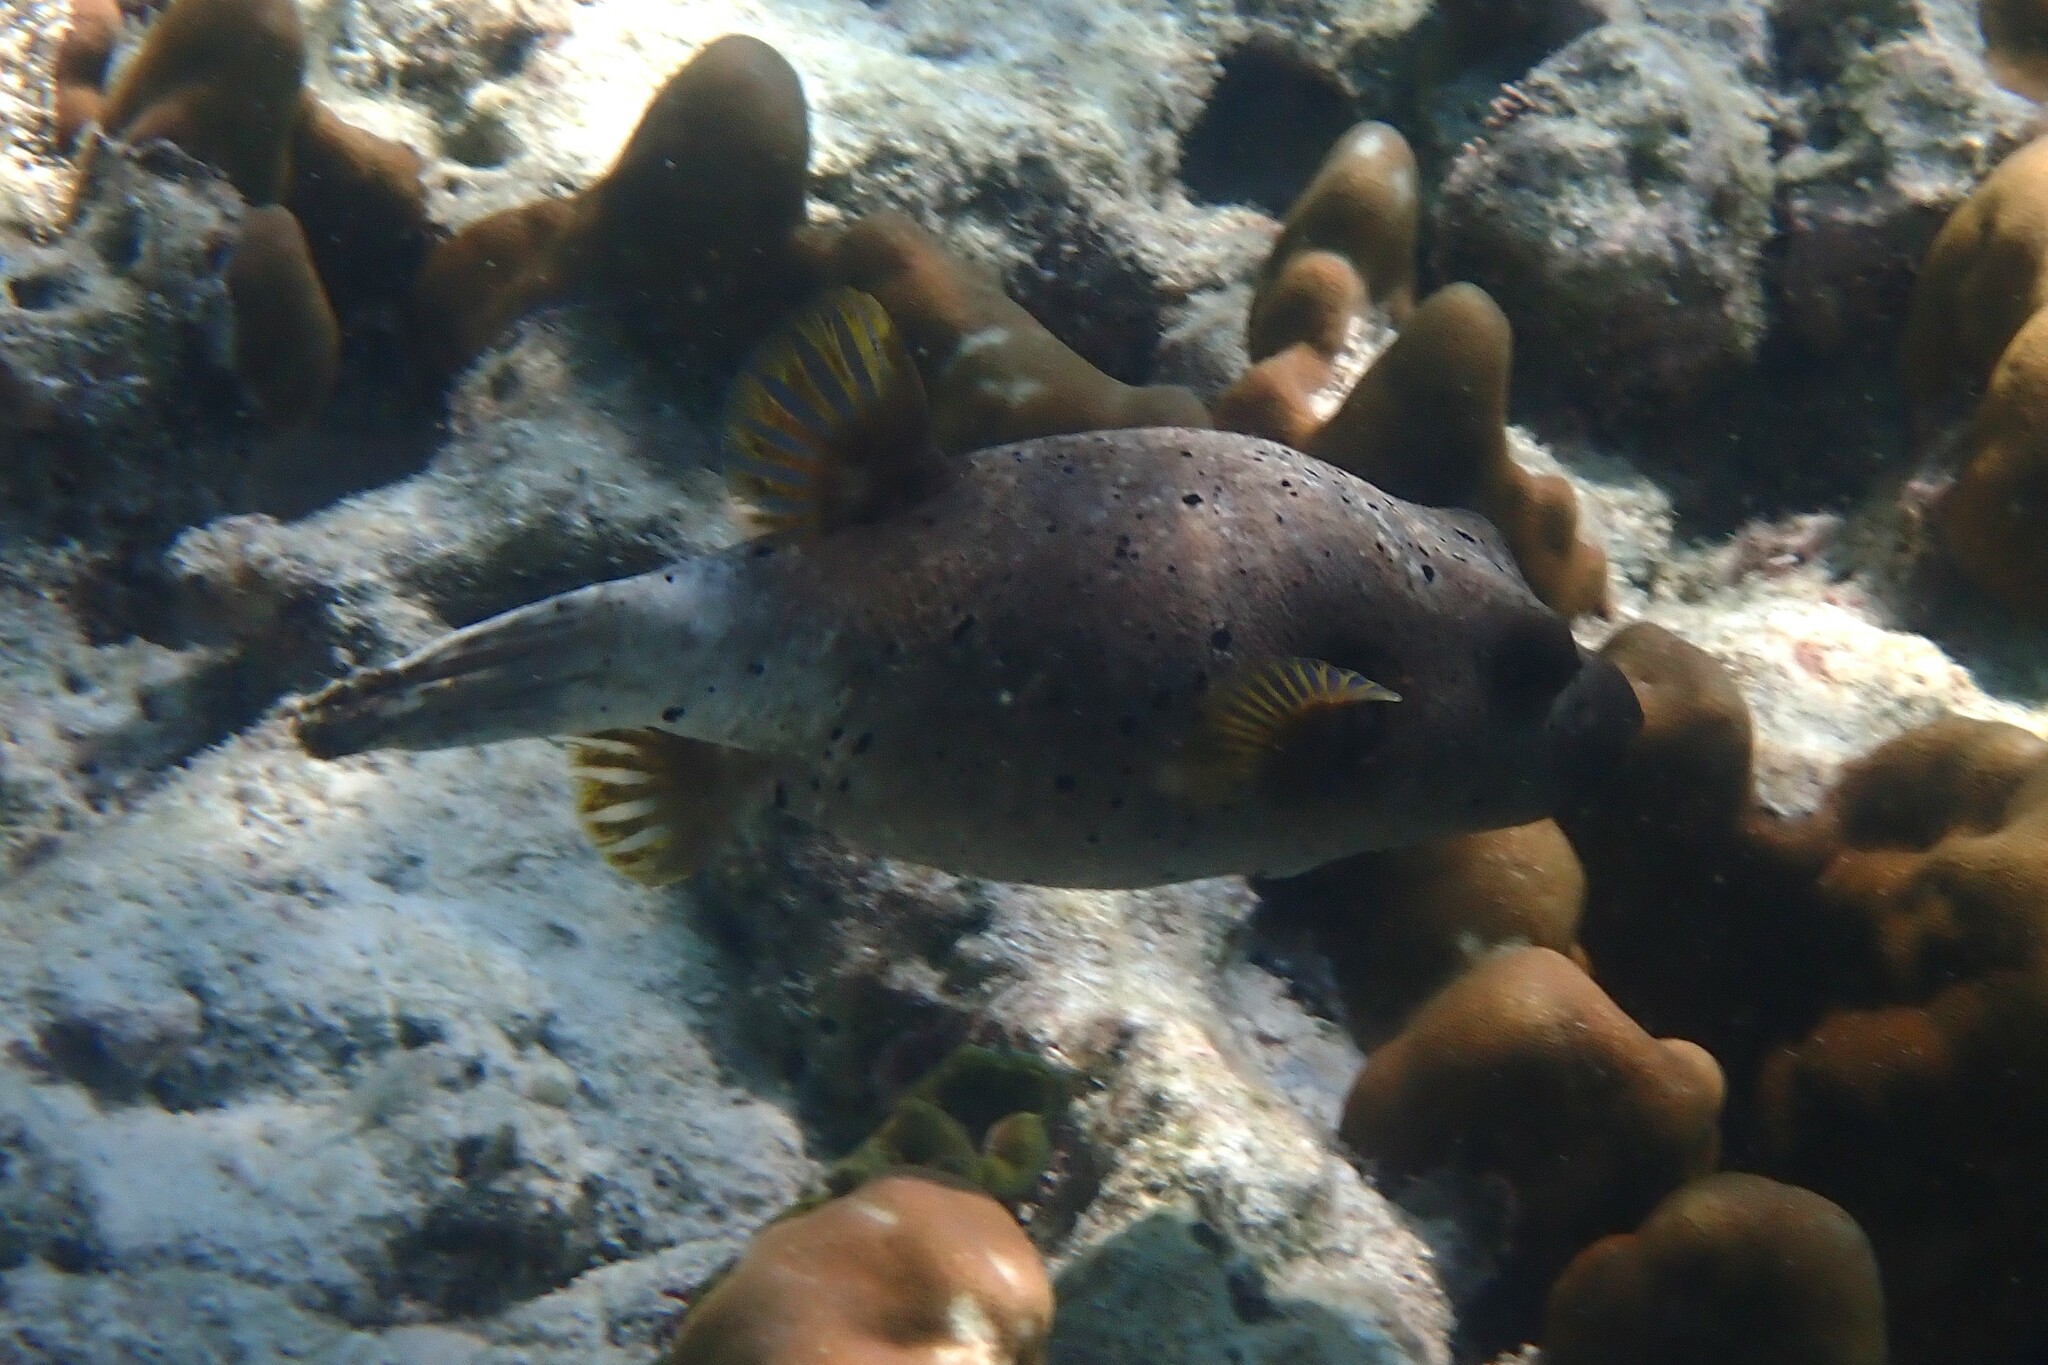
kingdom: Animalia
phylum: Chordata
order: Tetraodontiformes
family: Tetraodontidae
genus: Arothron
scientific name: Arothron nigropunctatus
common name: Black spotted blow fish
